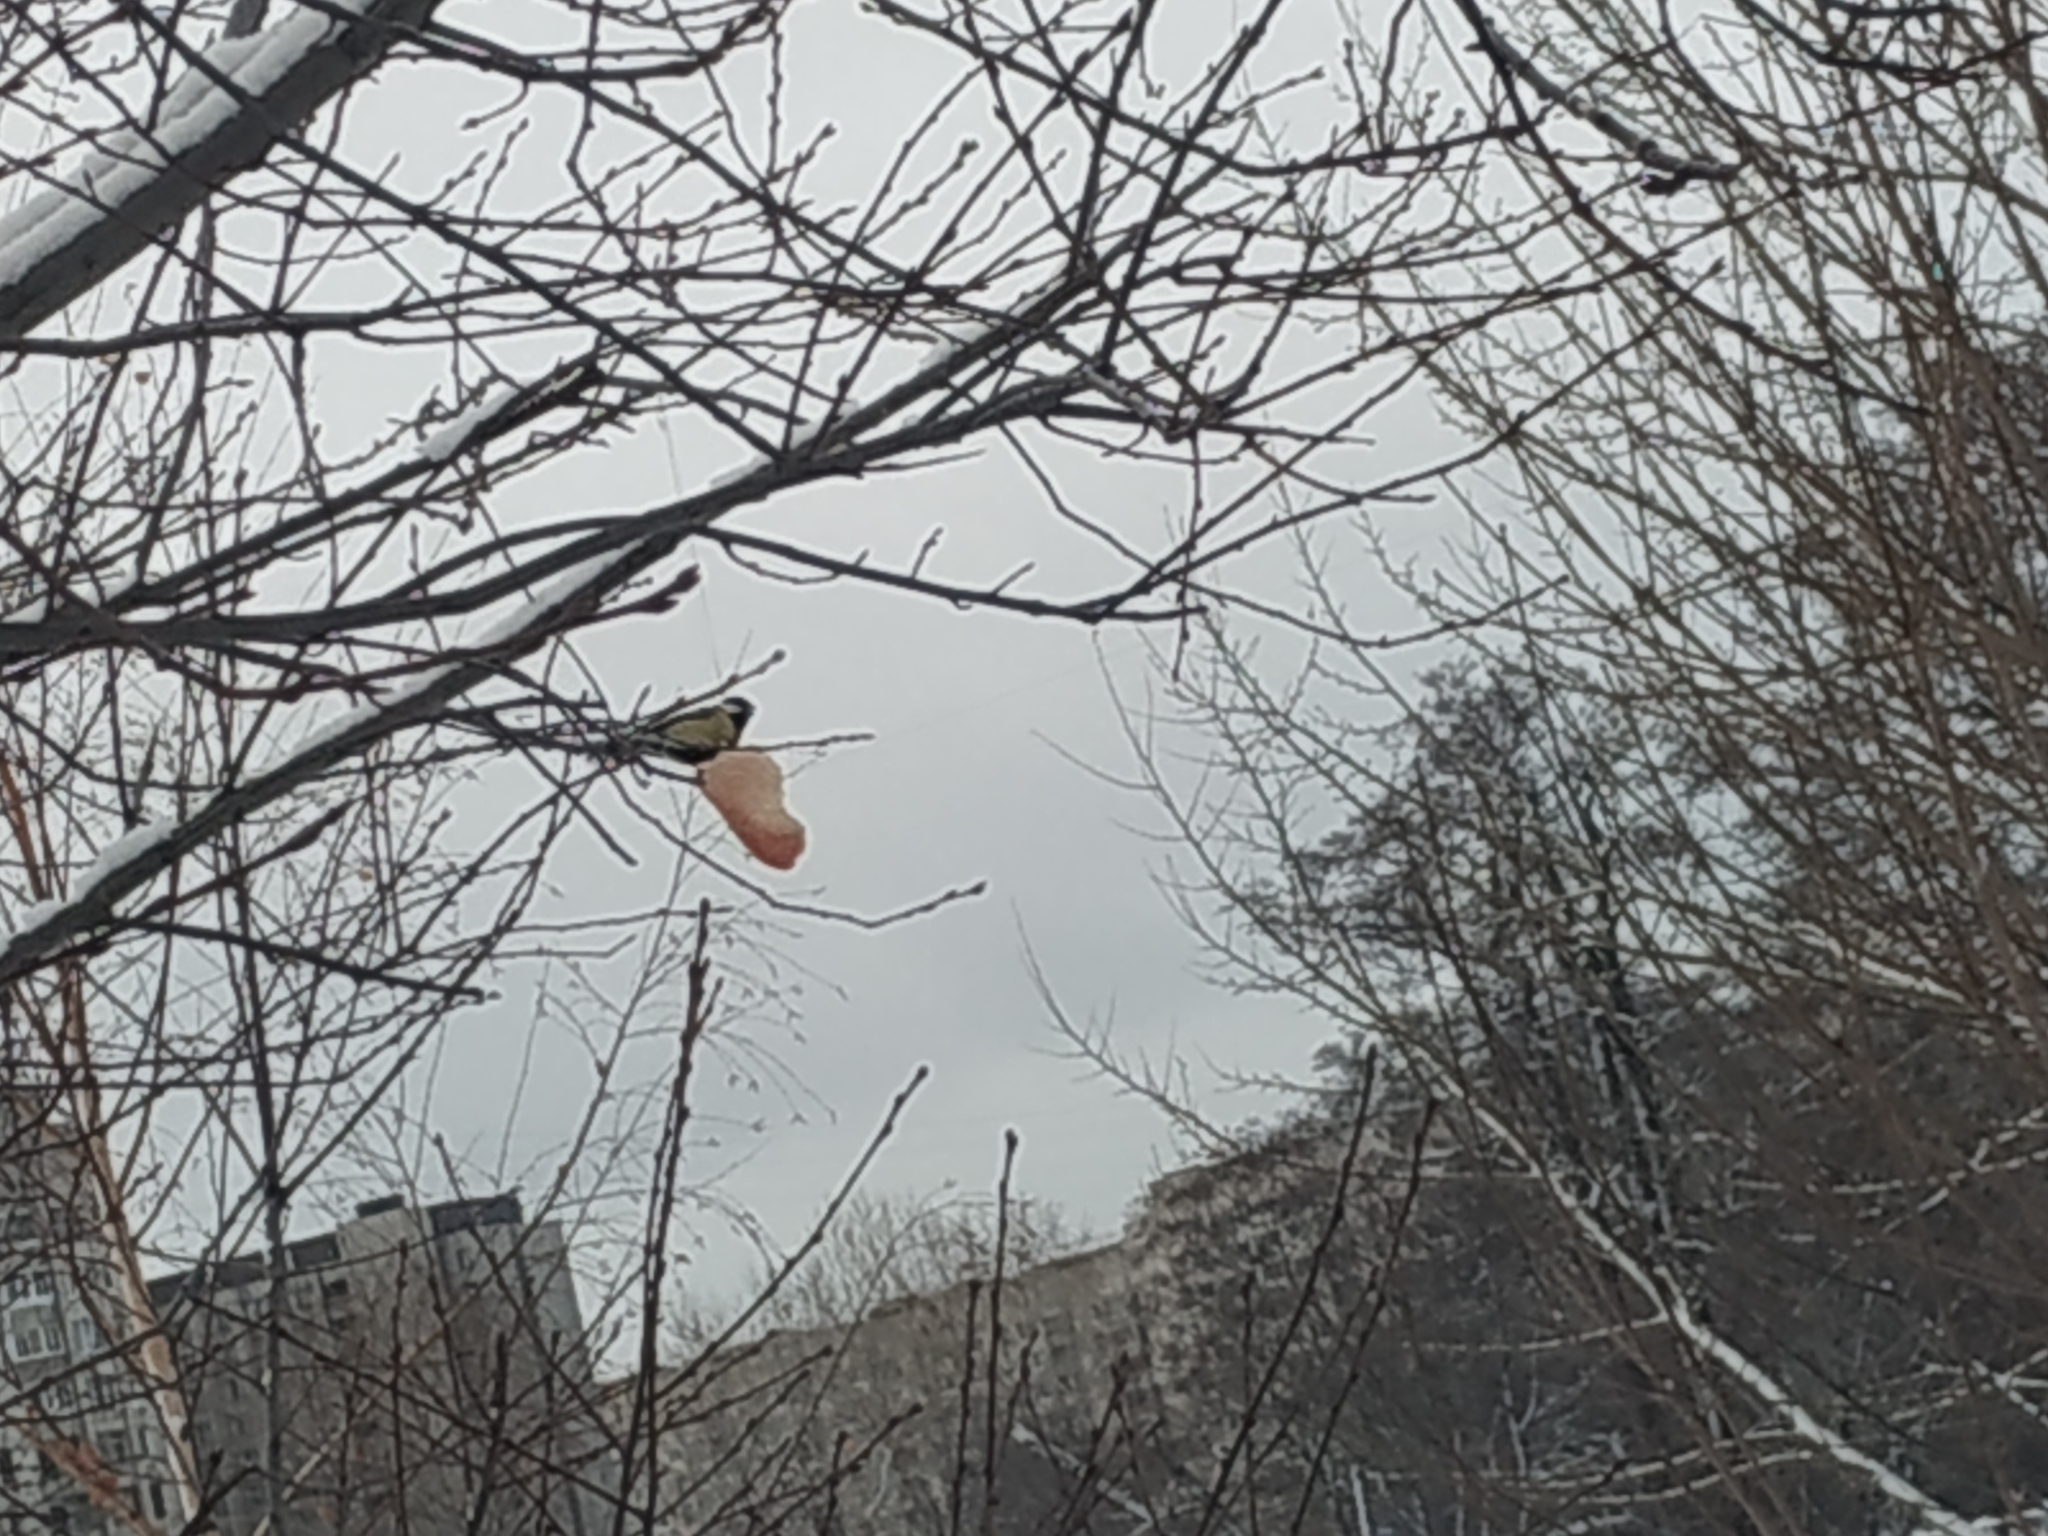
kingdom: Animalia
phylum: Chordata
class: Aves
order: Passeriformes
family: Paridae
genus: Parus
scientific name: Parus major
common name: Great tit
